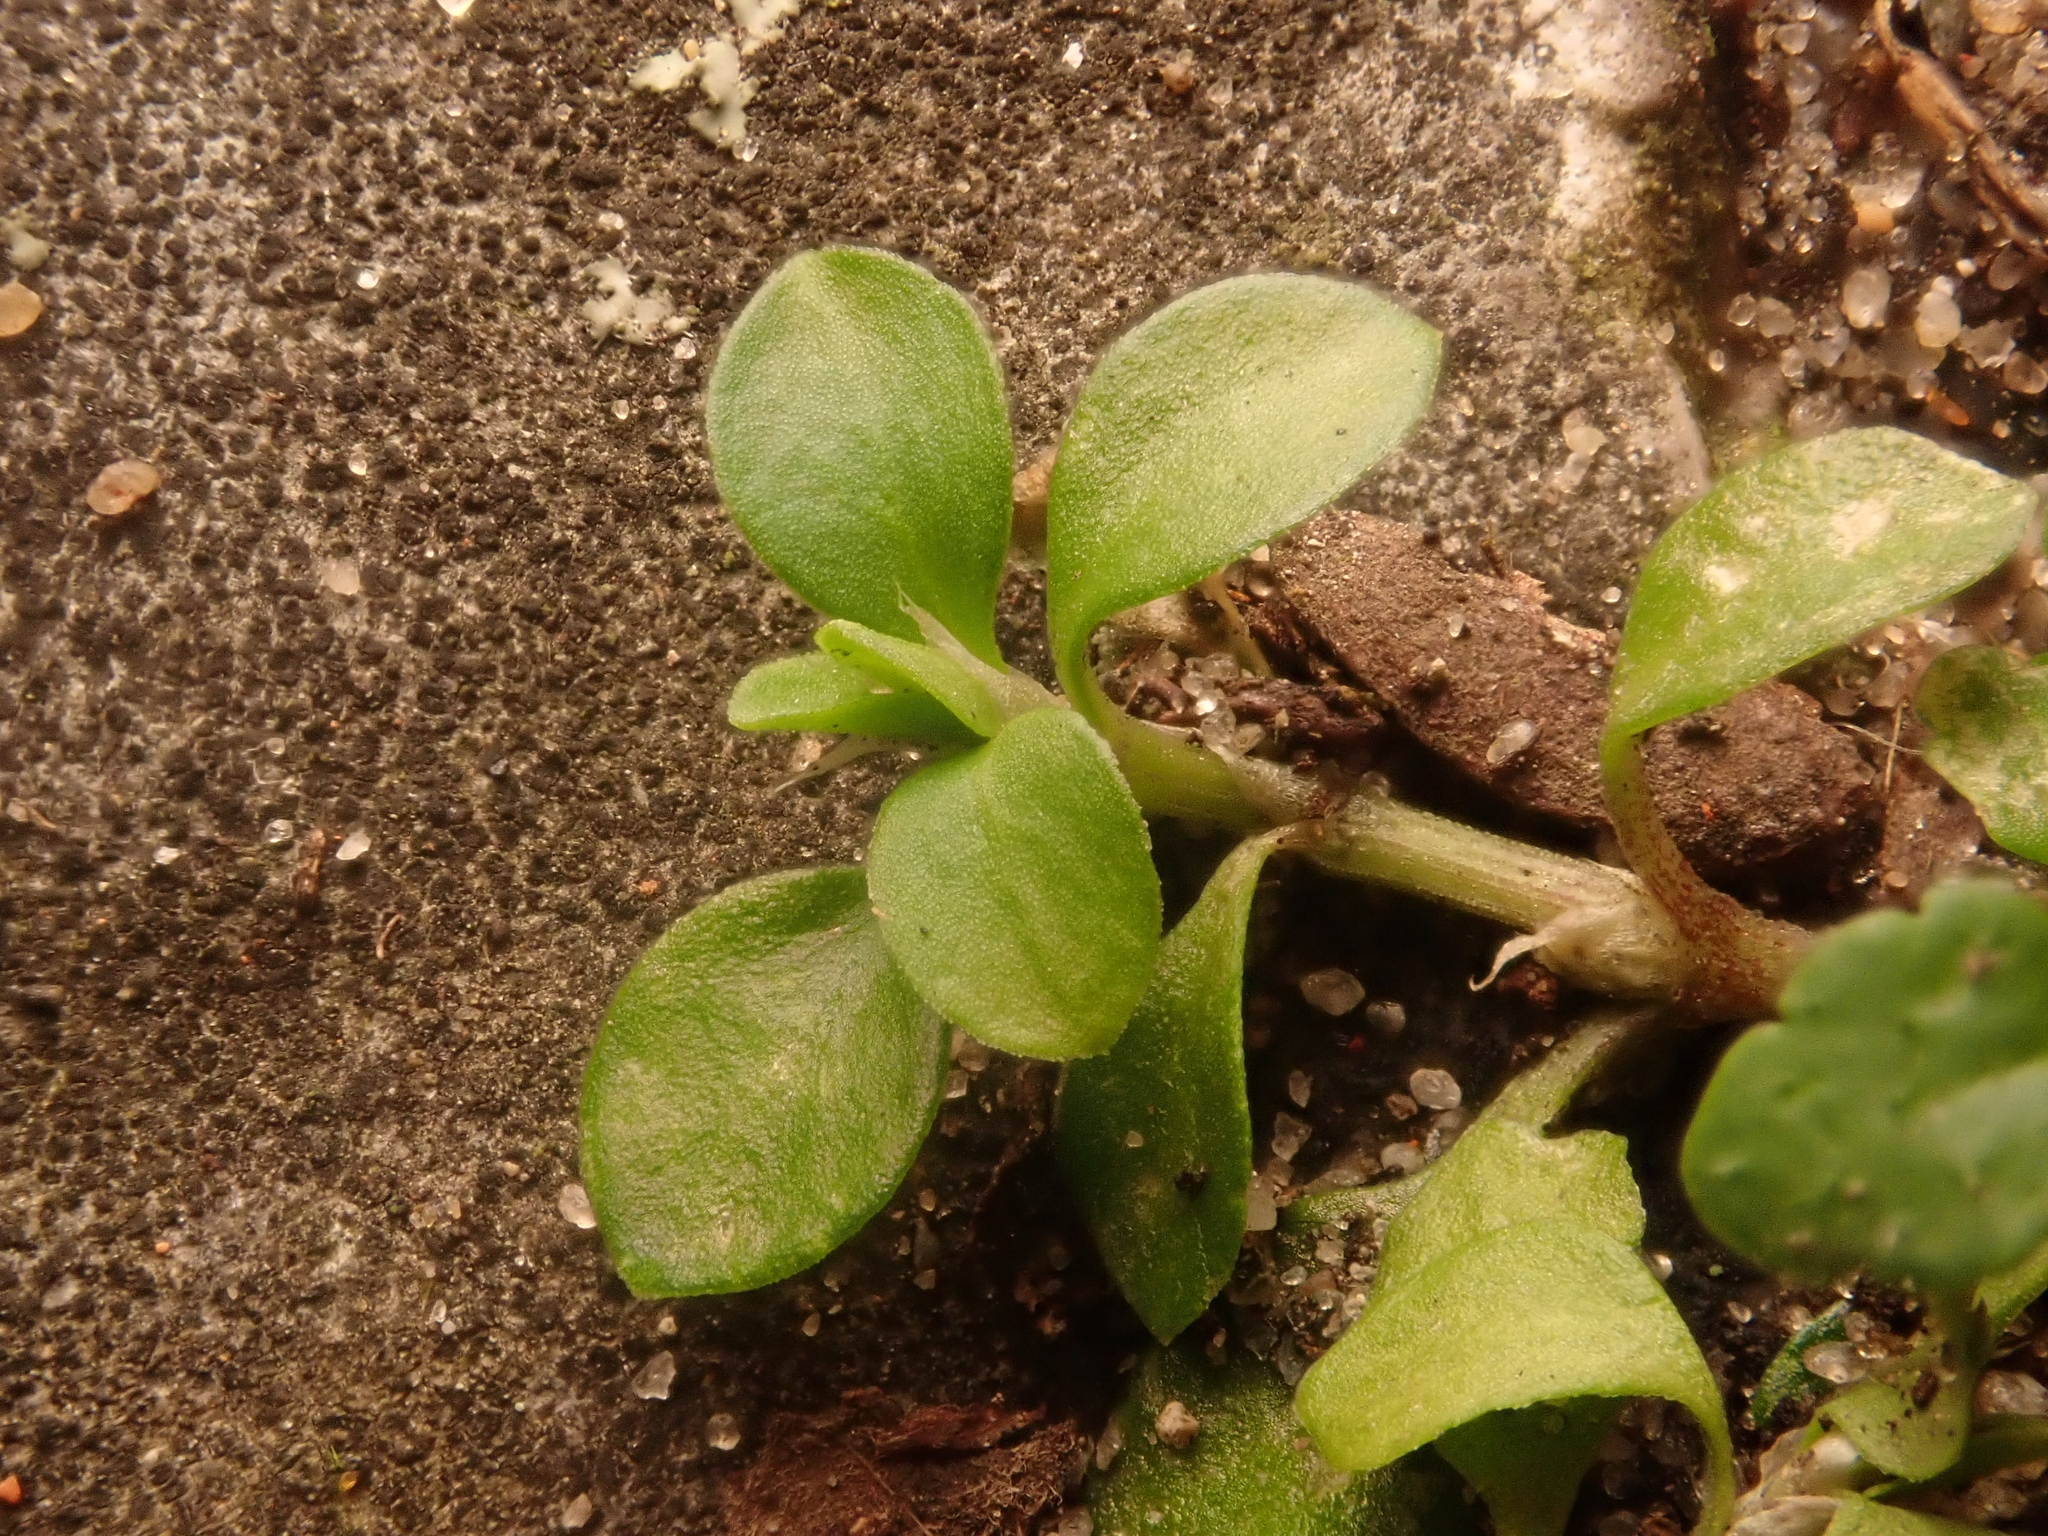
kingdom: Plantae
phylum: Tracheophyta
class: Magnoliopsida
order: Caryophyllales
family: Caryophyllaceae
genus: Polycarpon
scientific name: Polycarpon tetraphyllum
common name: Four-leaved all-seed
